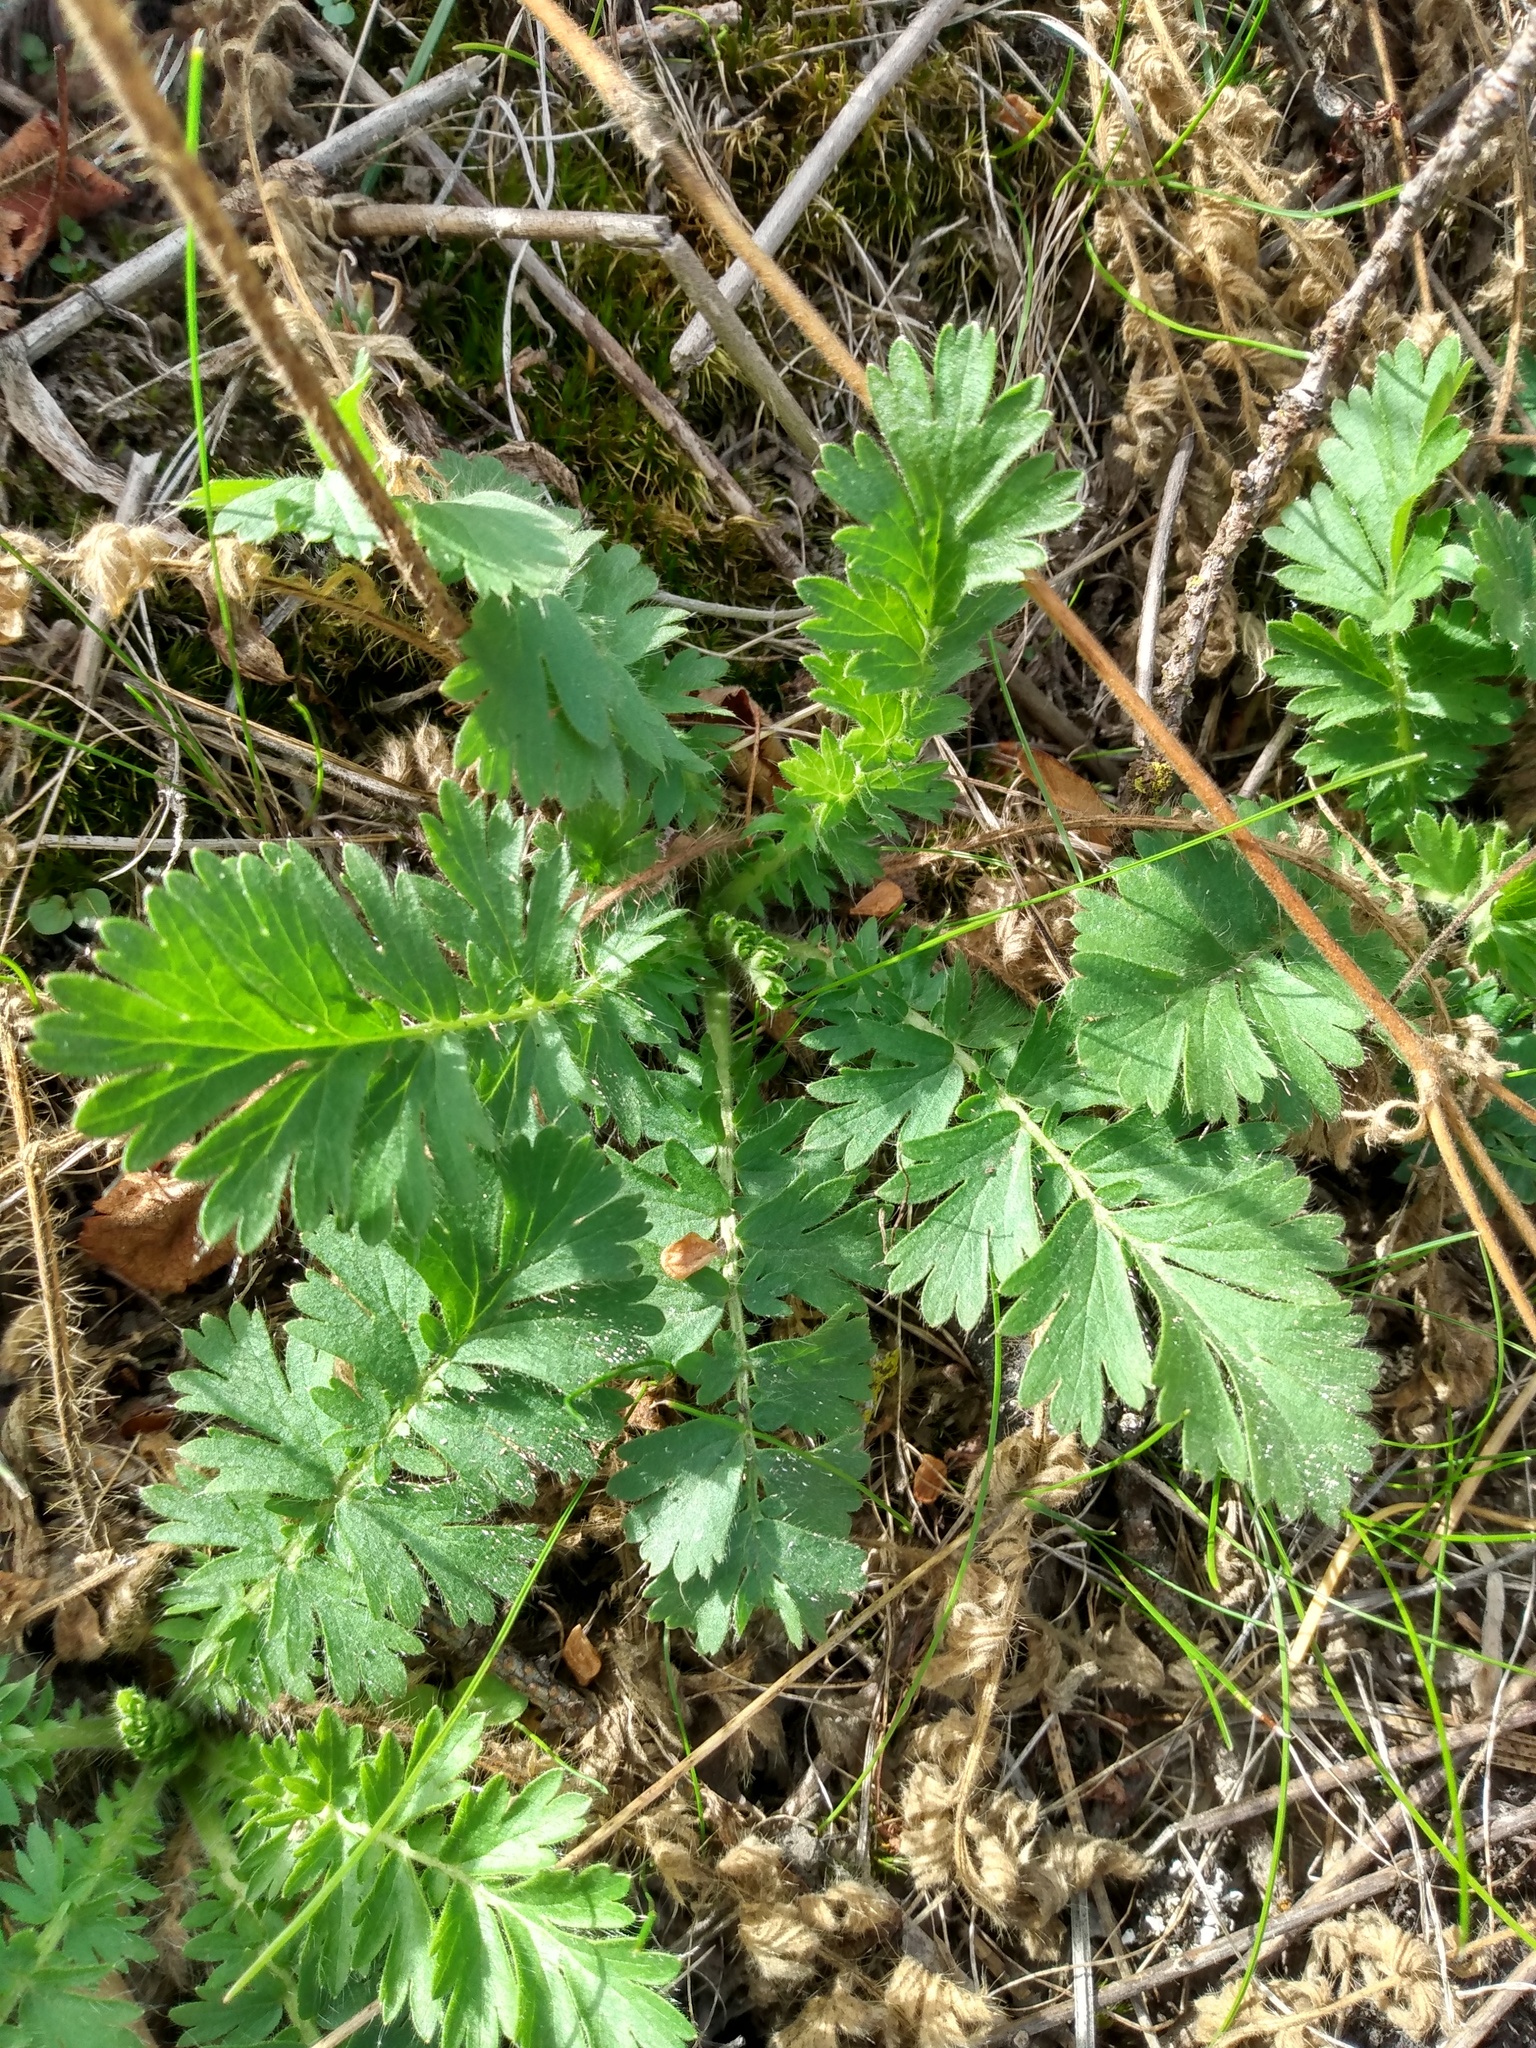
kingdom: Plantae
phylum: Tracheophyta
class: Magnoliopsida
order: Rosales
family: Rosaceae
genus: Geum
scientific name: Geum triflorum
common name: Old man's whiskers
